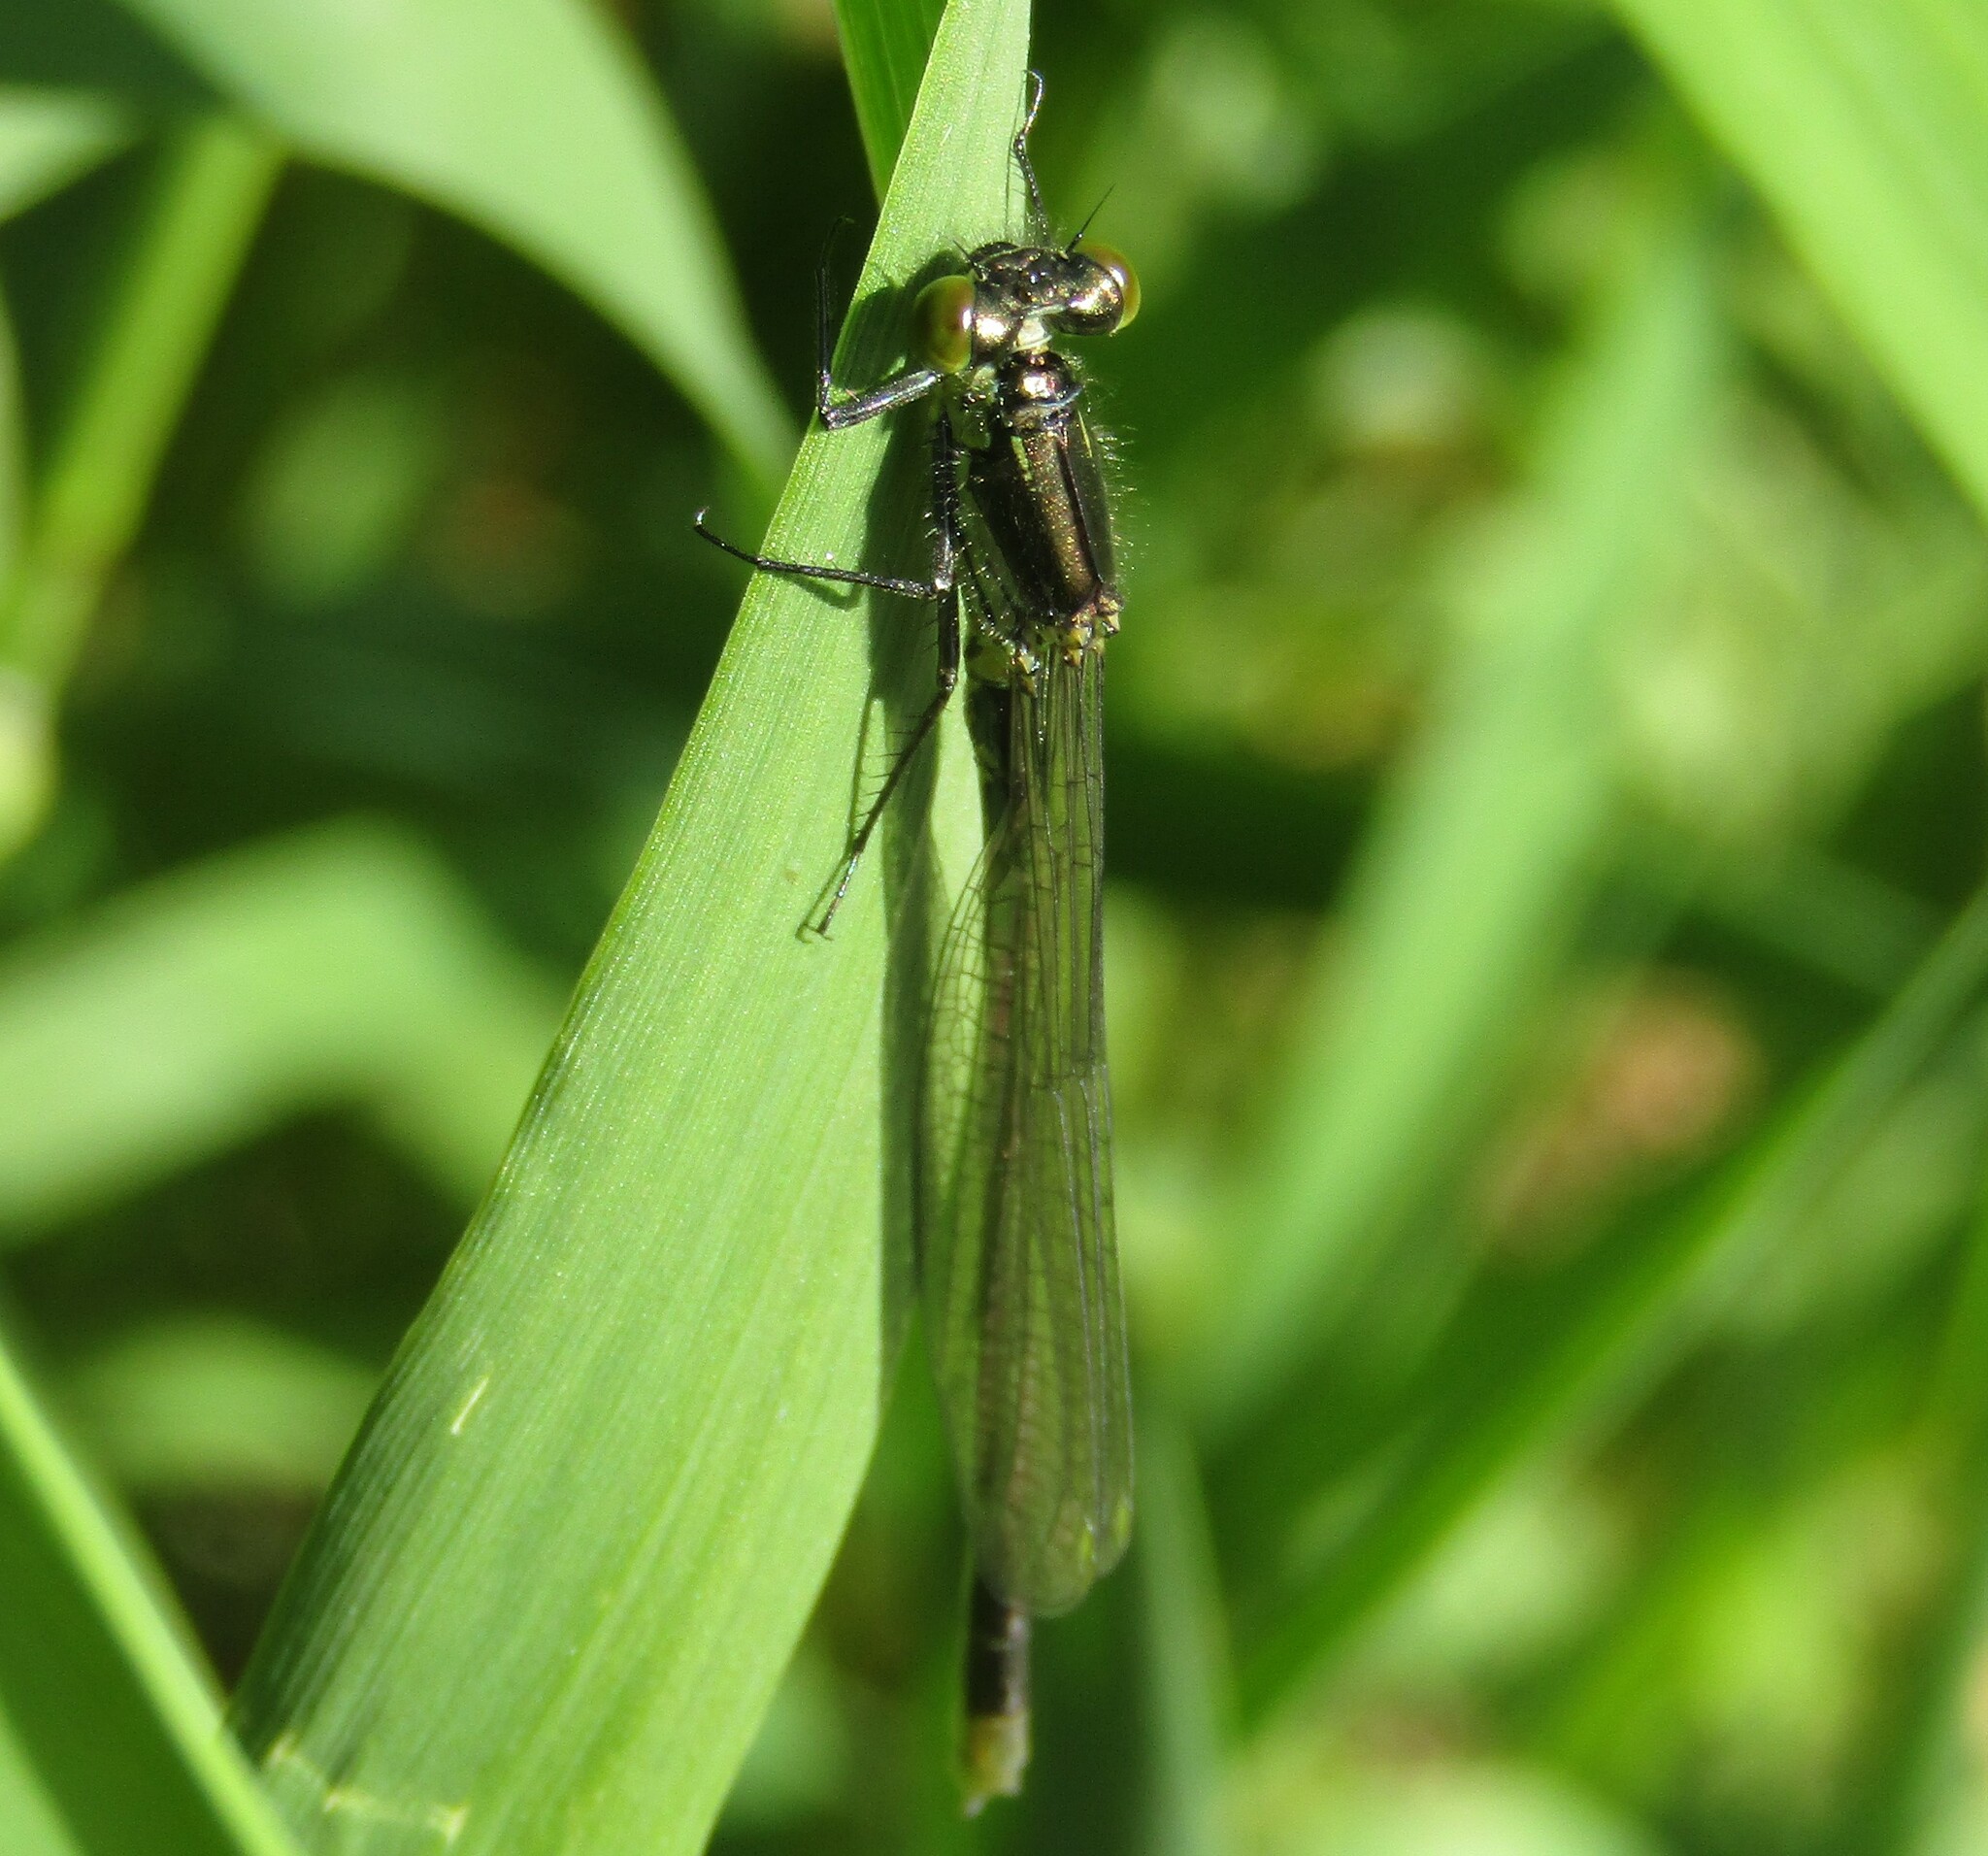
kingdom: Animalia
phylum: Arthropoda
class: Insecta
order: Odonata
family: Coenagrionidae
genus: Erythromma
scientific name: Erythromma najas
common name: Red-eyed damselfly
